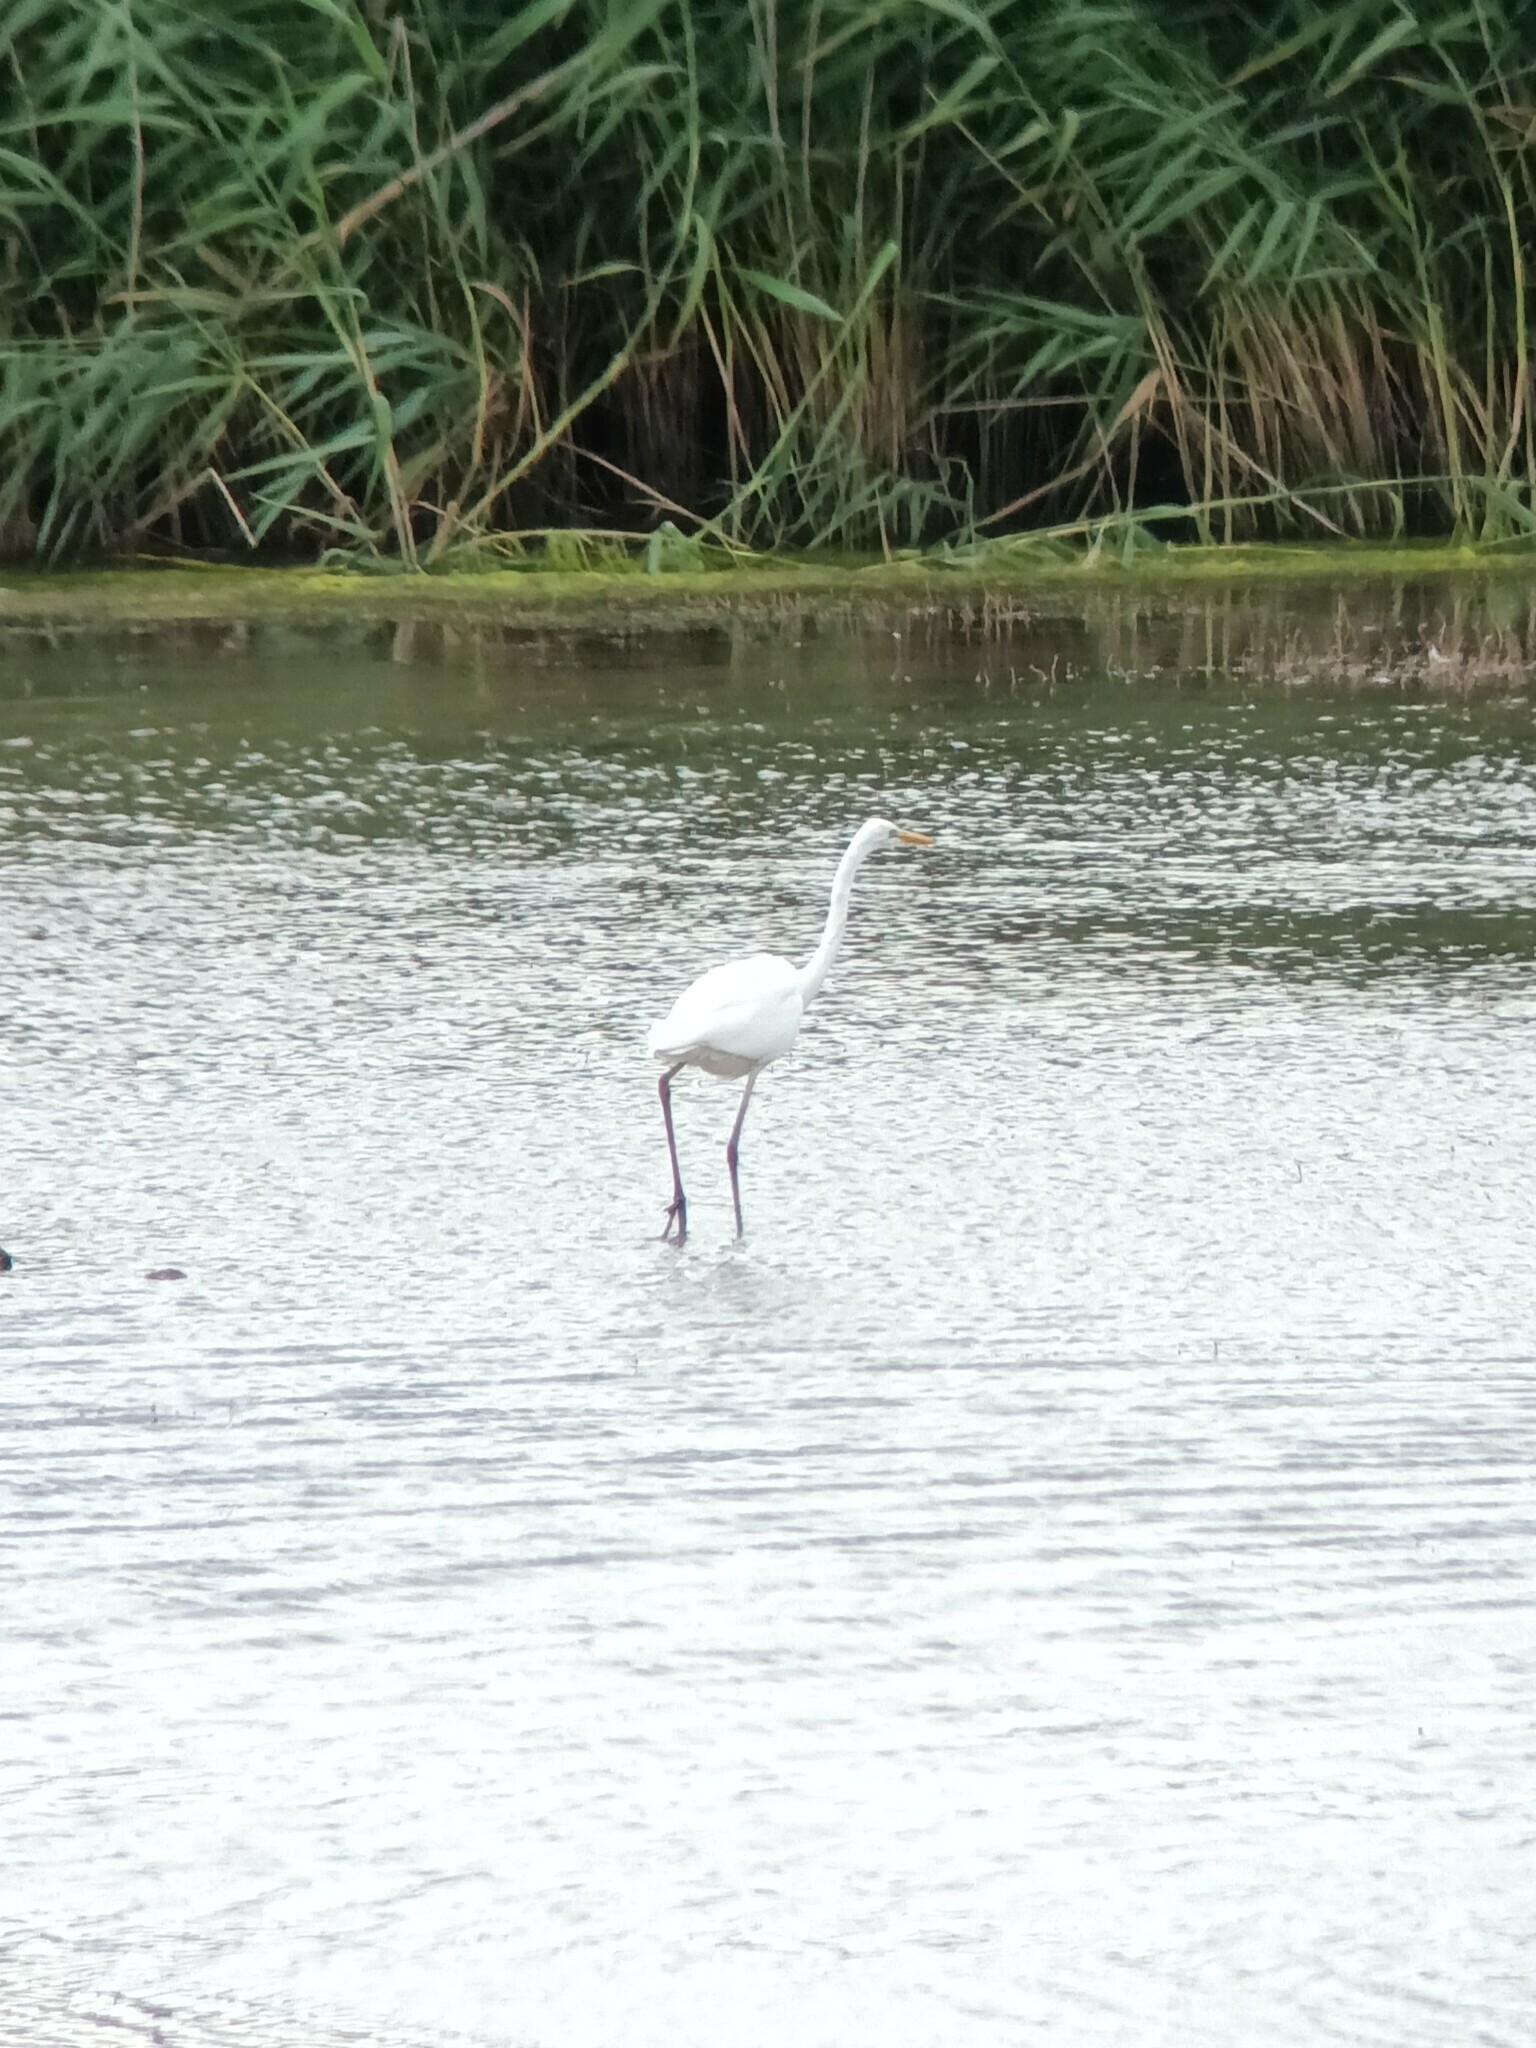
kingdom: Animalia
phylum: Chordata
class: Aves
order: Pelecaniformes
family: Ardeidae
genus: Ardea
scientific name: Ardea alba
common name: Great egret
